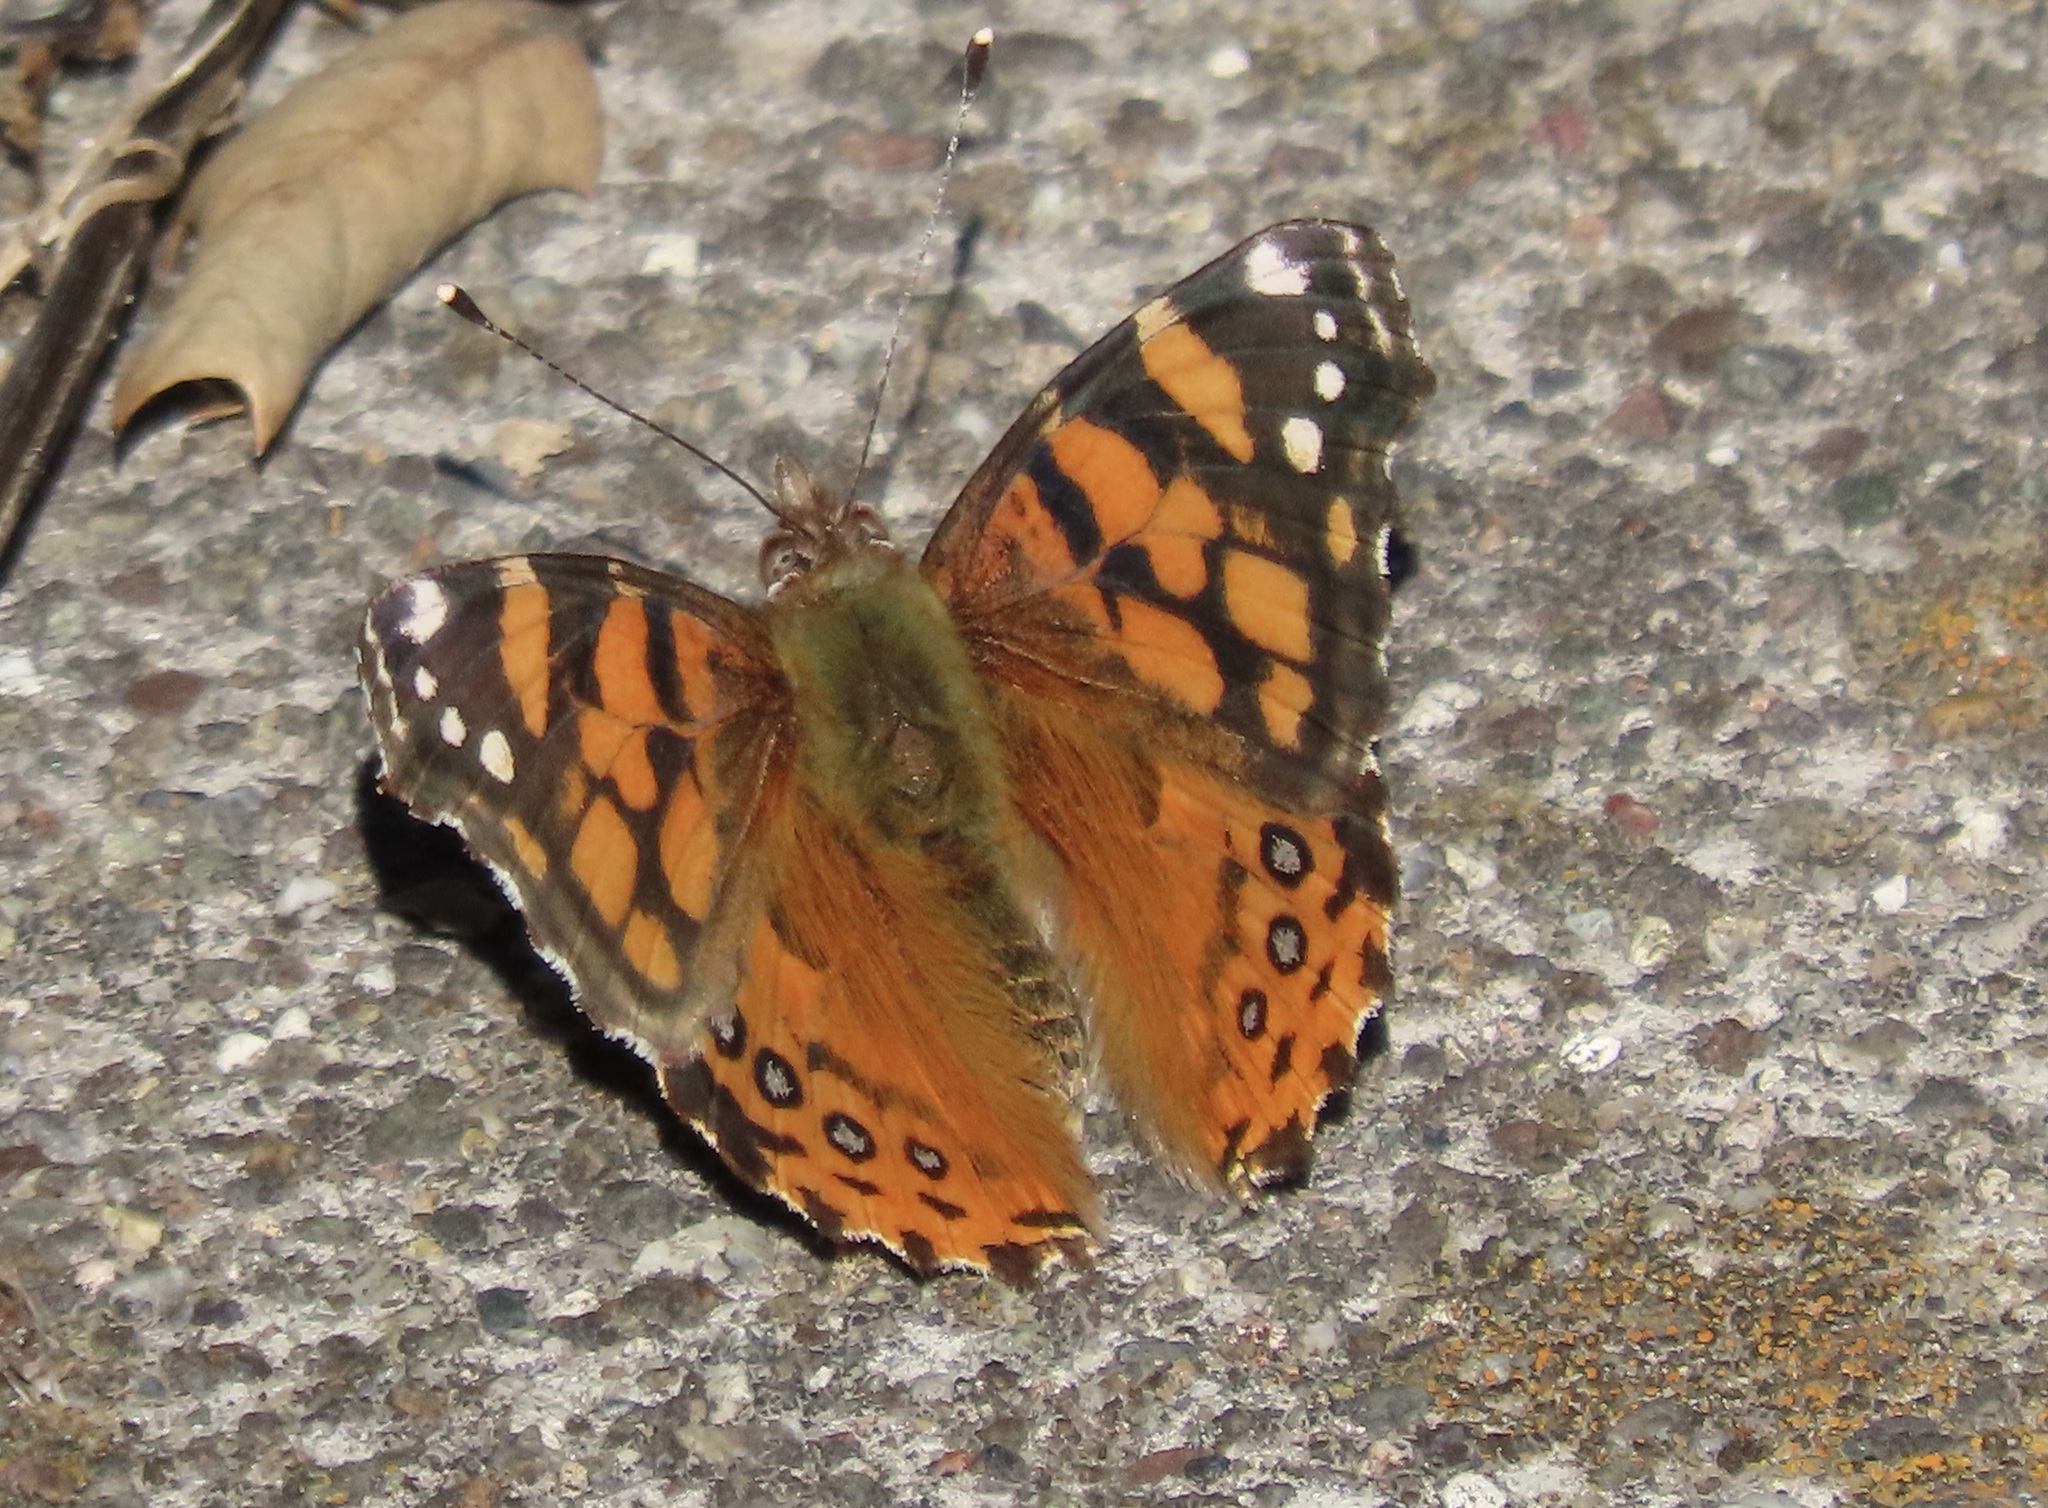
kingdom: Animalia
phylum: Arthropoda
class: Insecta
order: Lepidoptera
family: Nymphalidae
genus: Vanessa
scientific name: Vanessa annabella
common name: West coast lady
